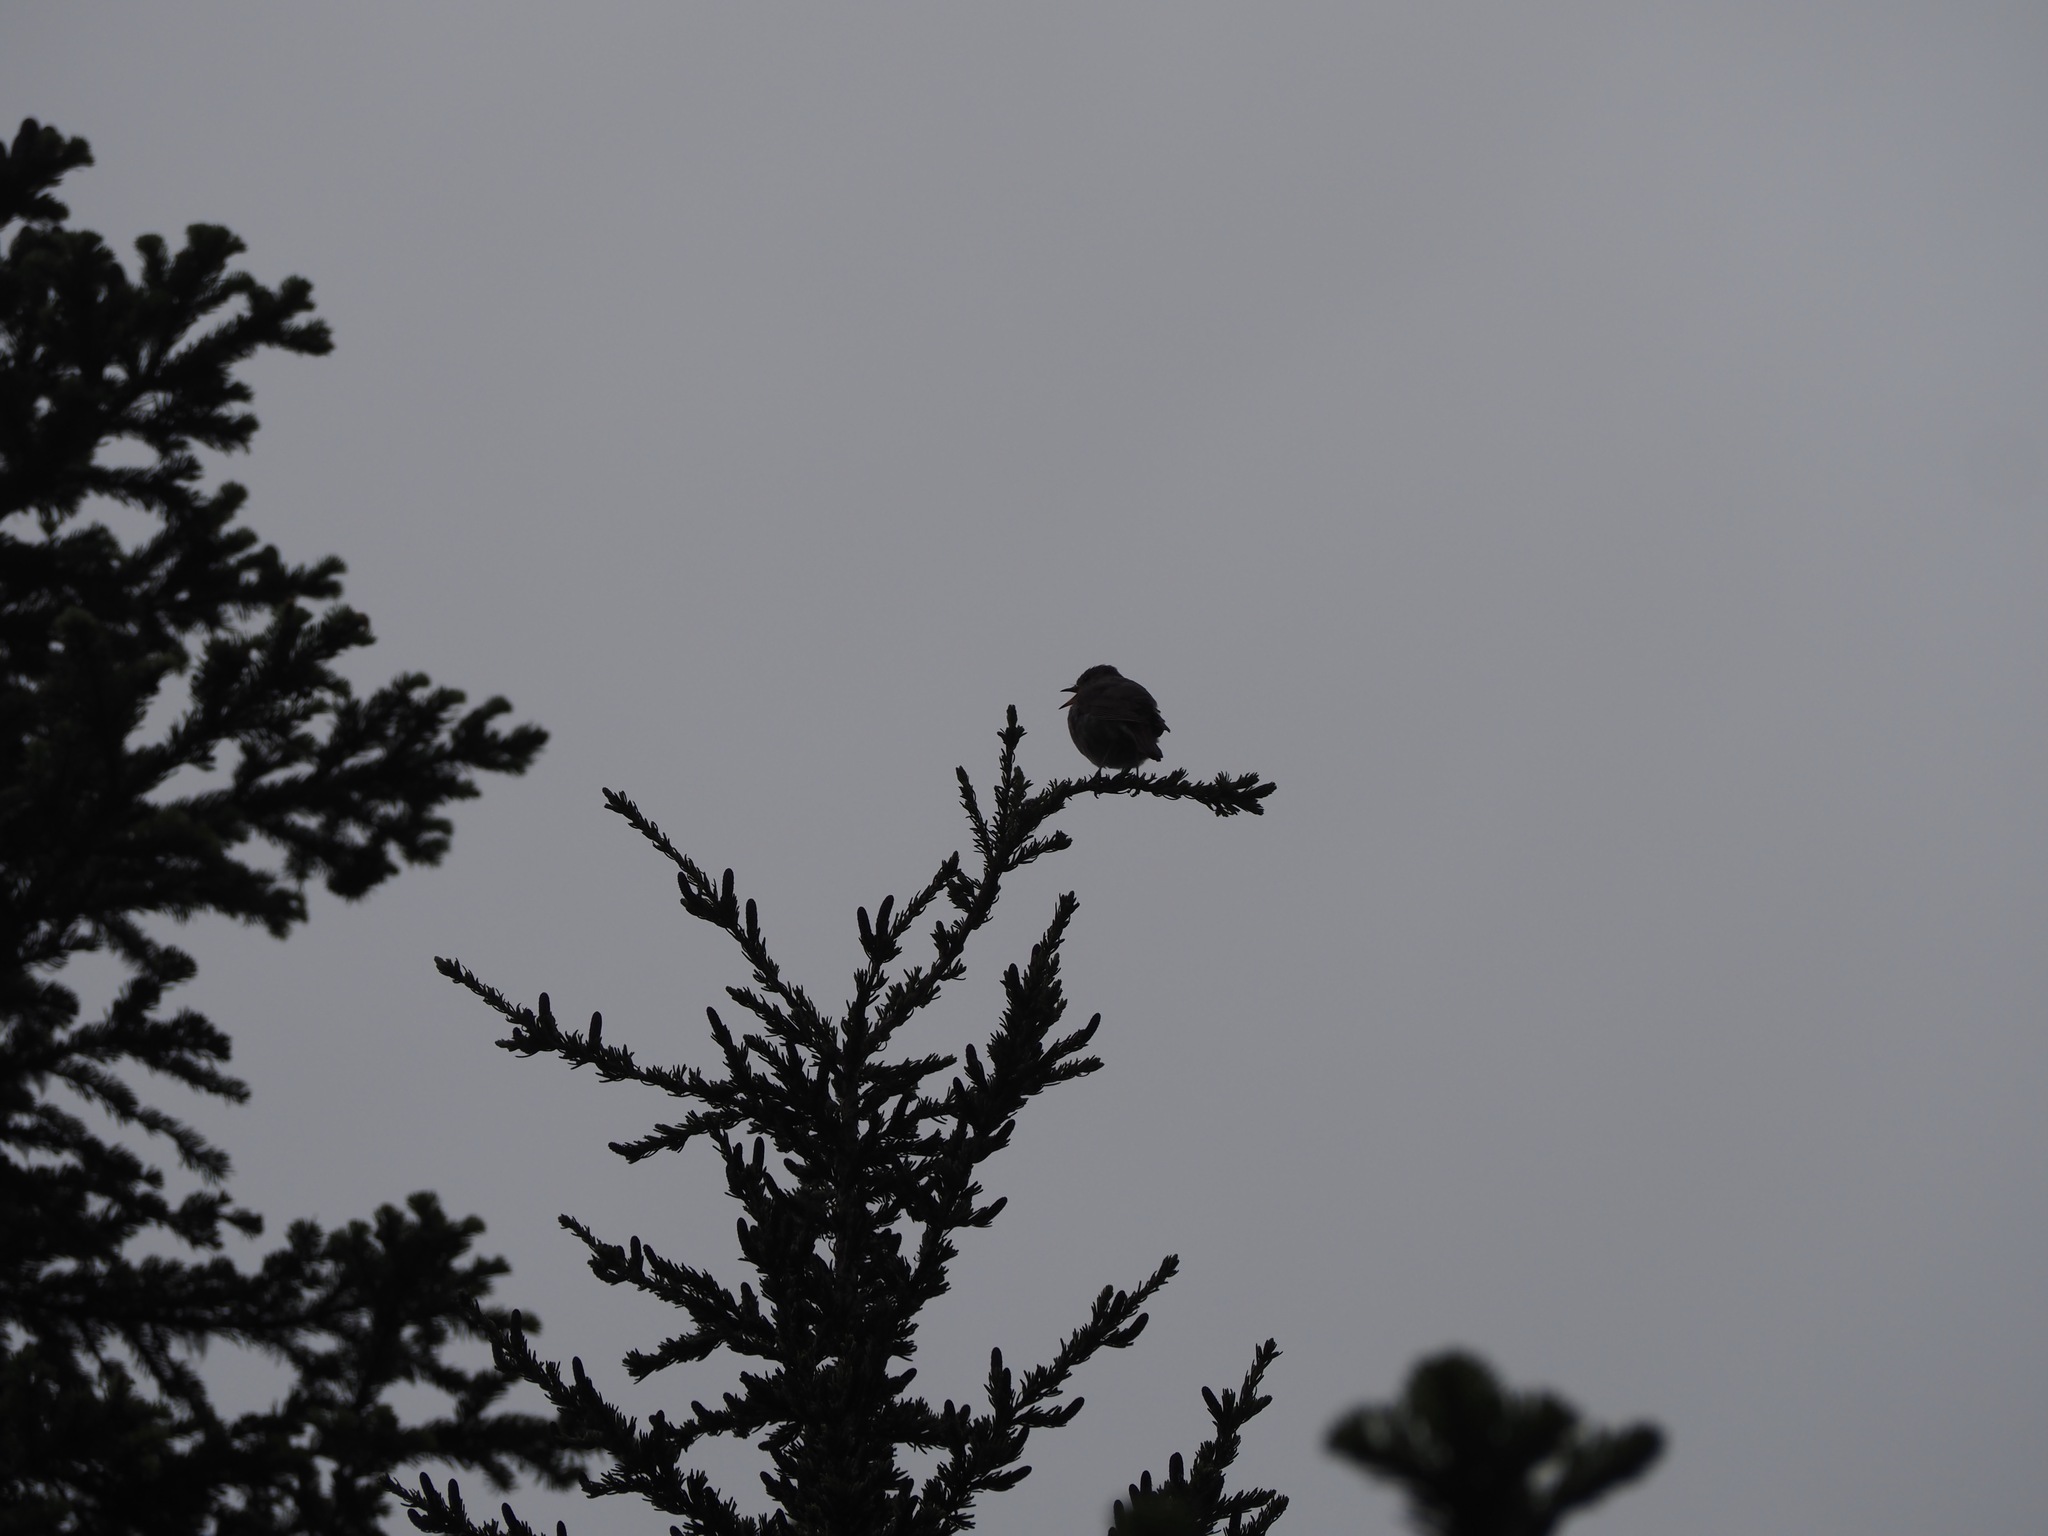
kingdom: Animalia
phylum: Chordata
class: Aves
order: Passeriformes
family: Turdidae
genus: Catharus
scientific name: Catharus guttatus
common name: Hermit thrush
